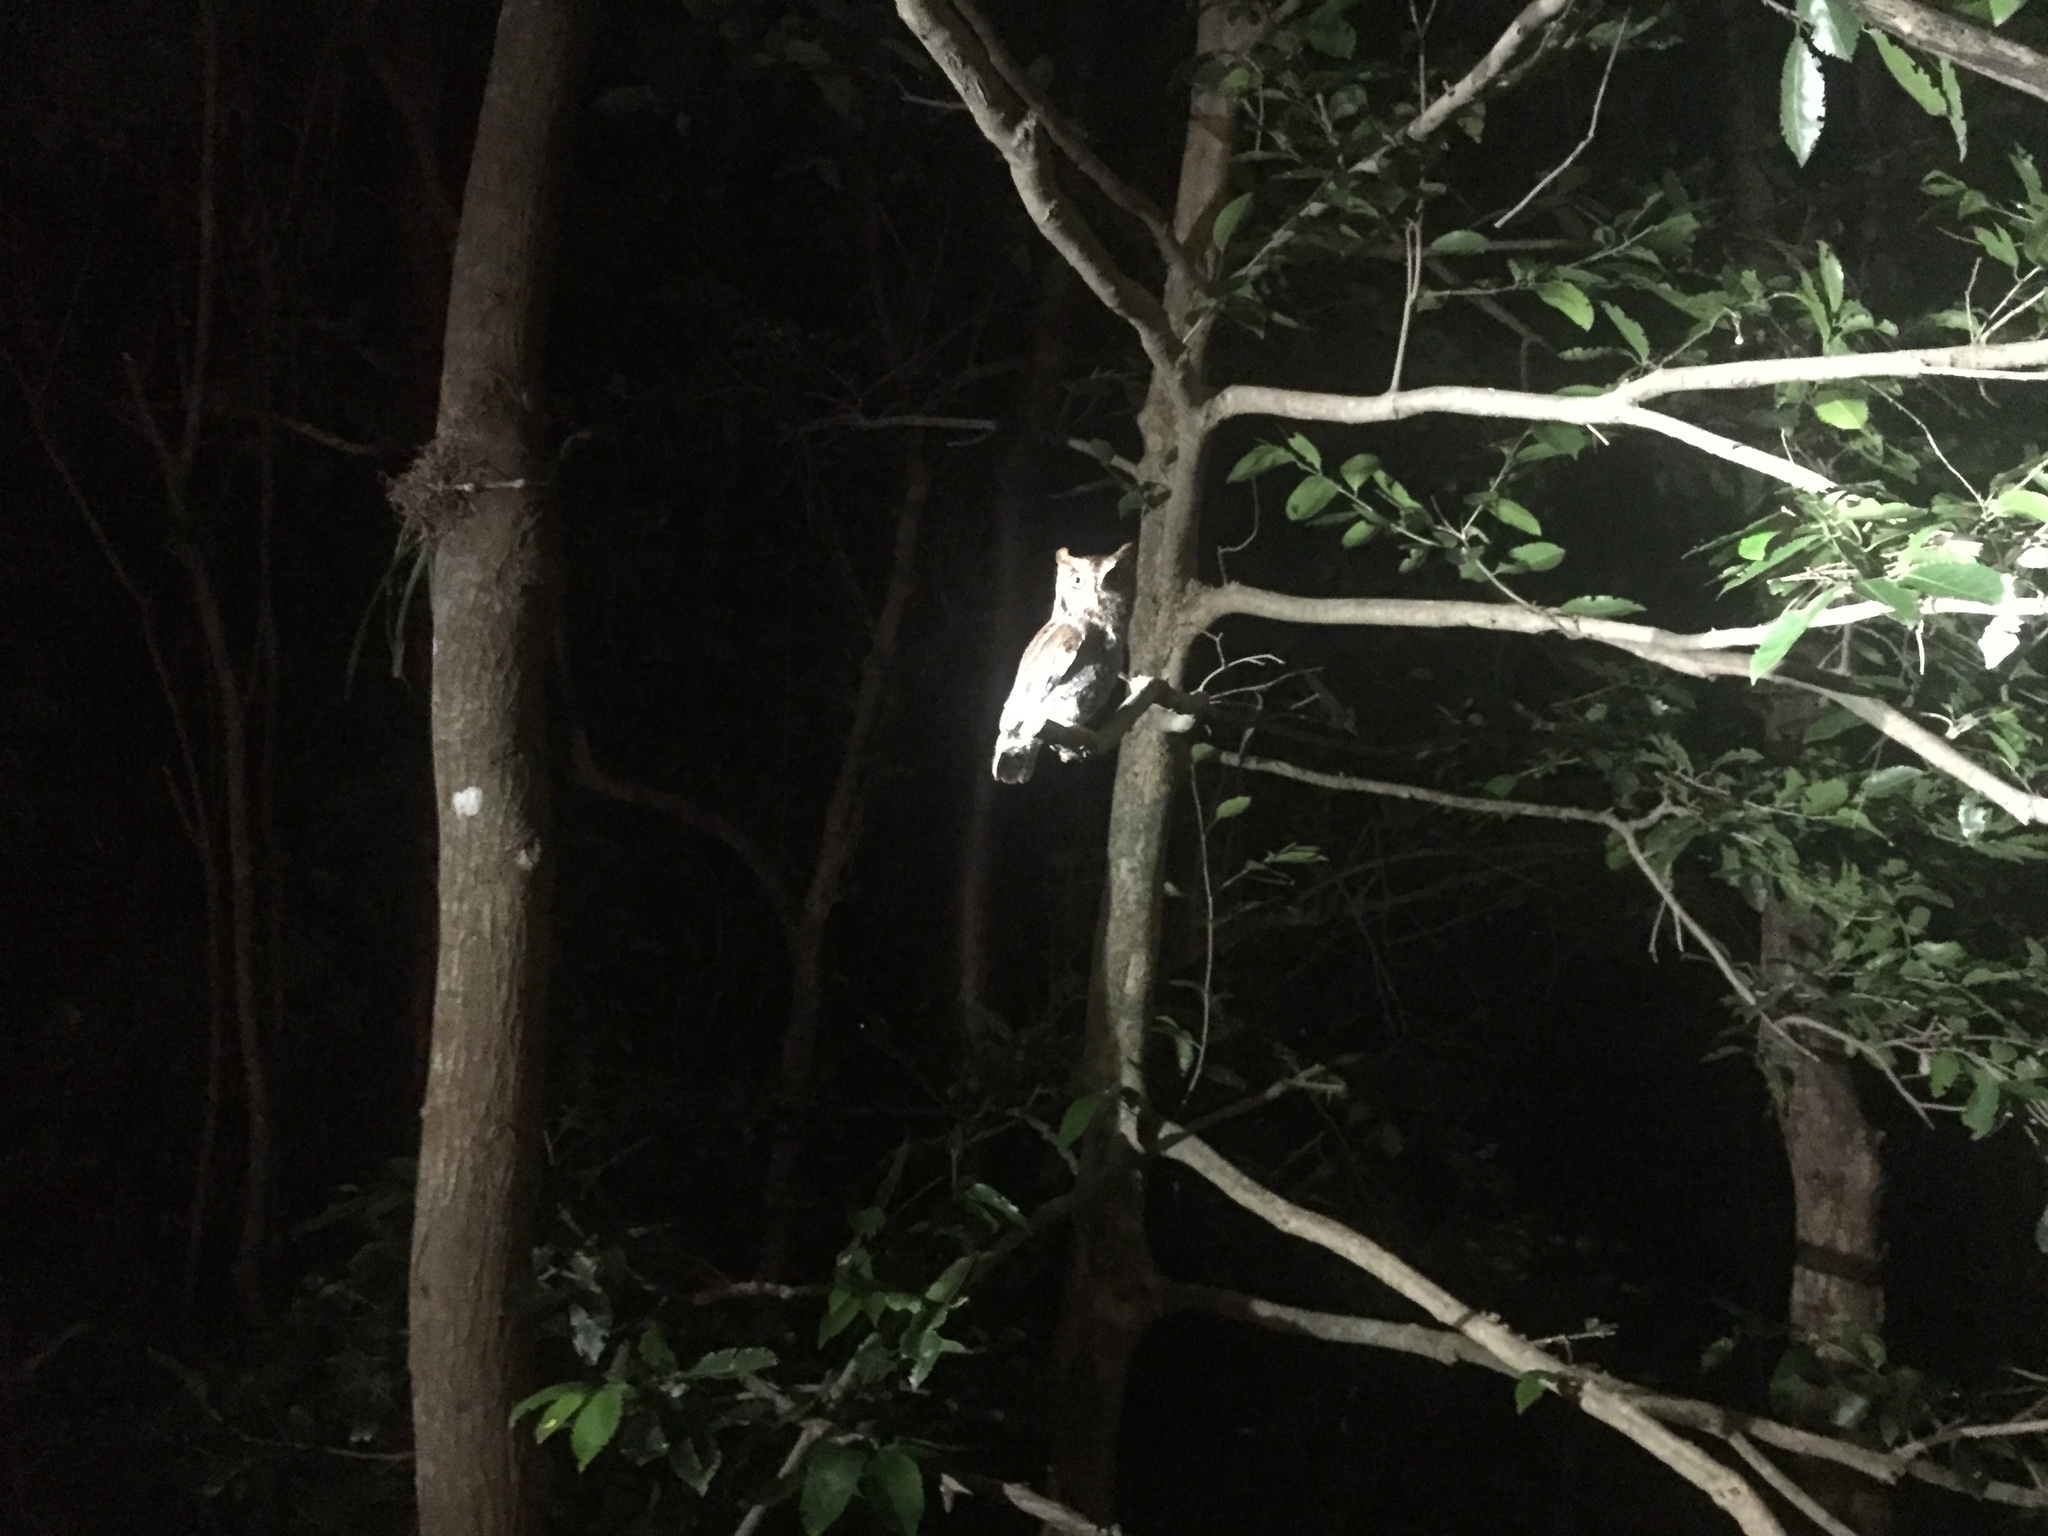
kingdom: Animalia
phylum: Chordata
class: Aves
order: Strigiformes
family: Strigidae
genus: Megascops
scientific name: Megascops asio
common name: Eastern screech-owl
